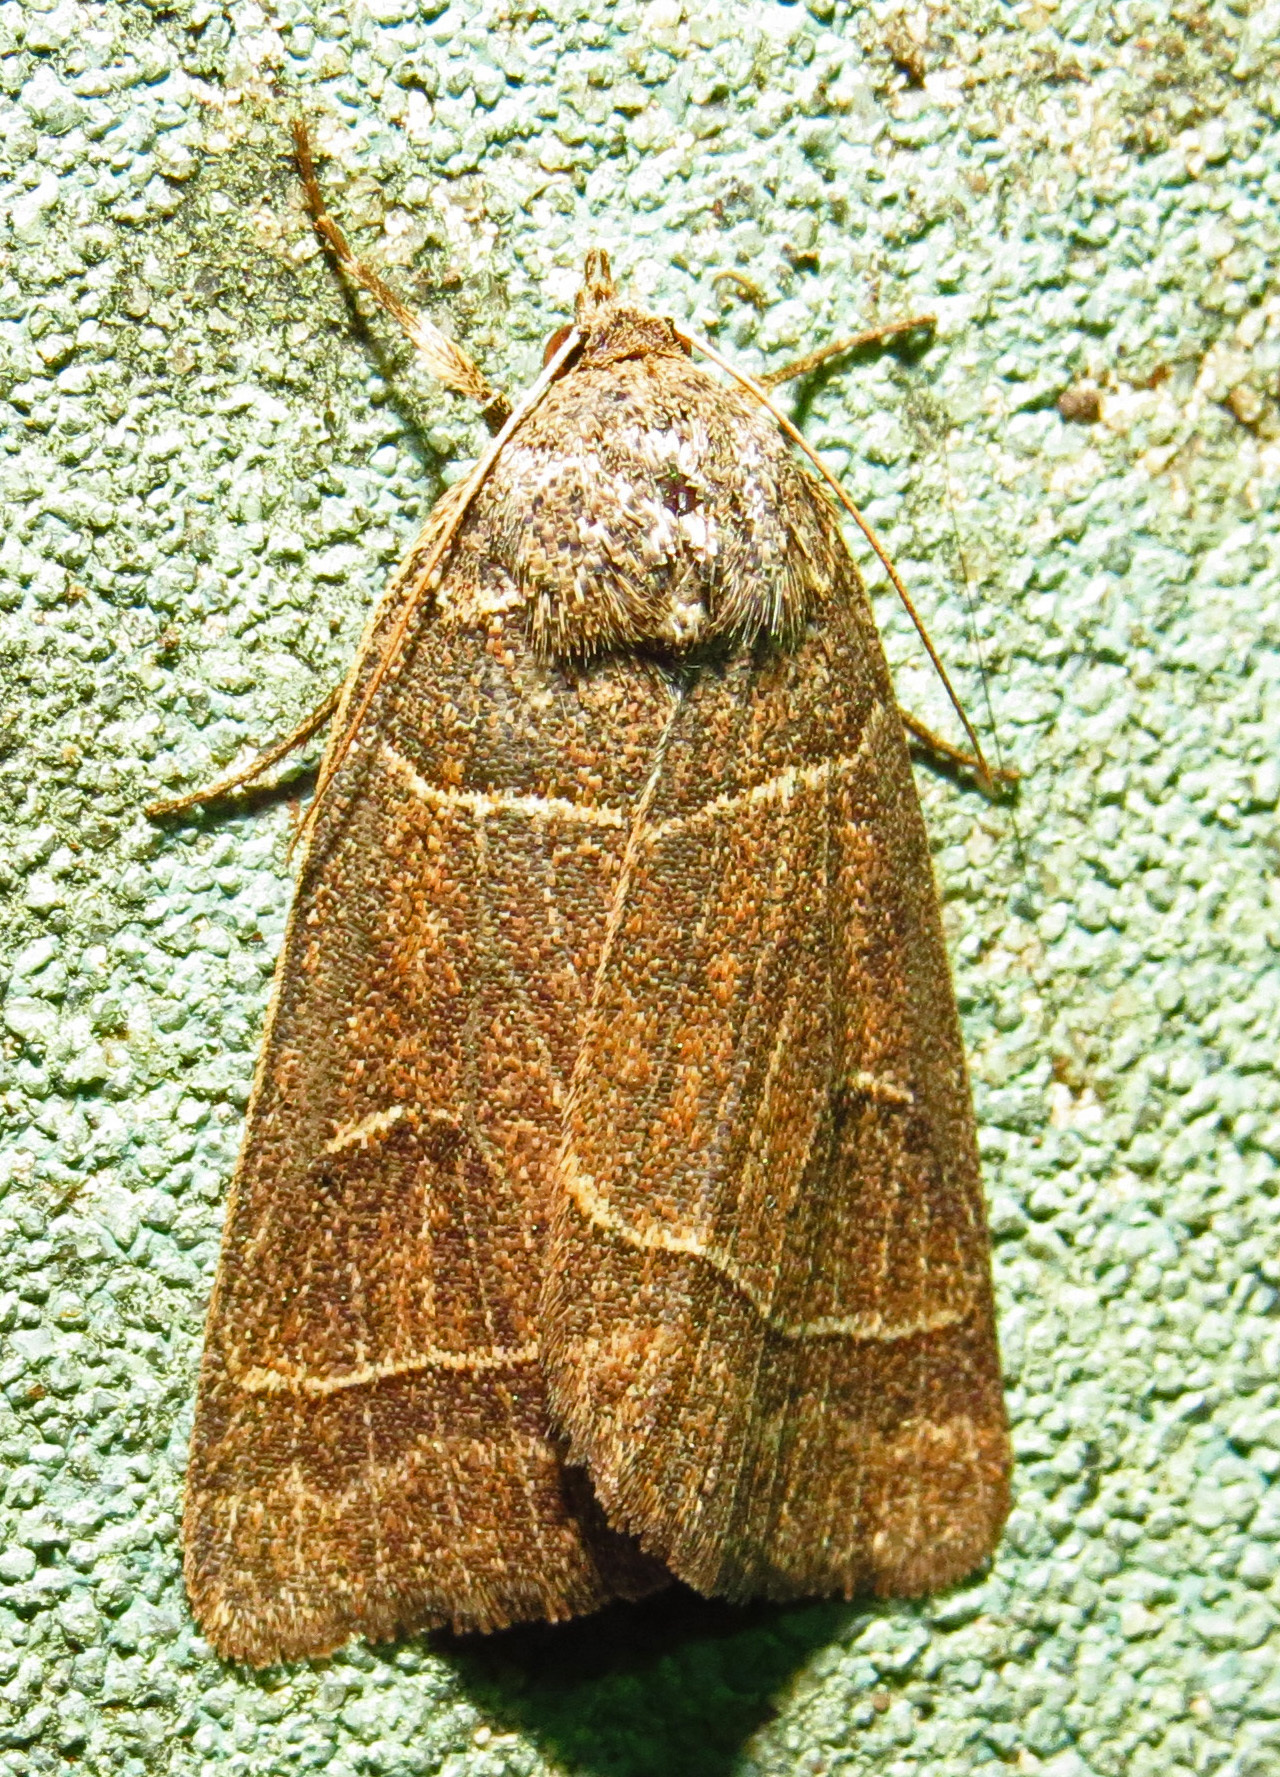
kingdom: Animalia
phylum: Arthropoda
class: Insecta
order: Lepidoptera
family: Erebidae
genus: Phoberia
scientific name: Phoberia atomaris
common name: Common oak moth
